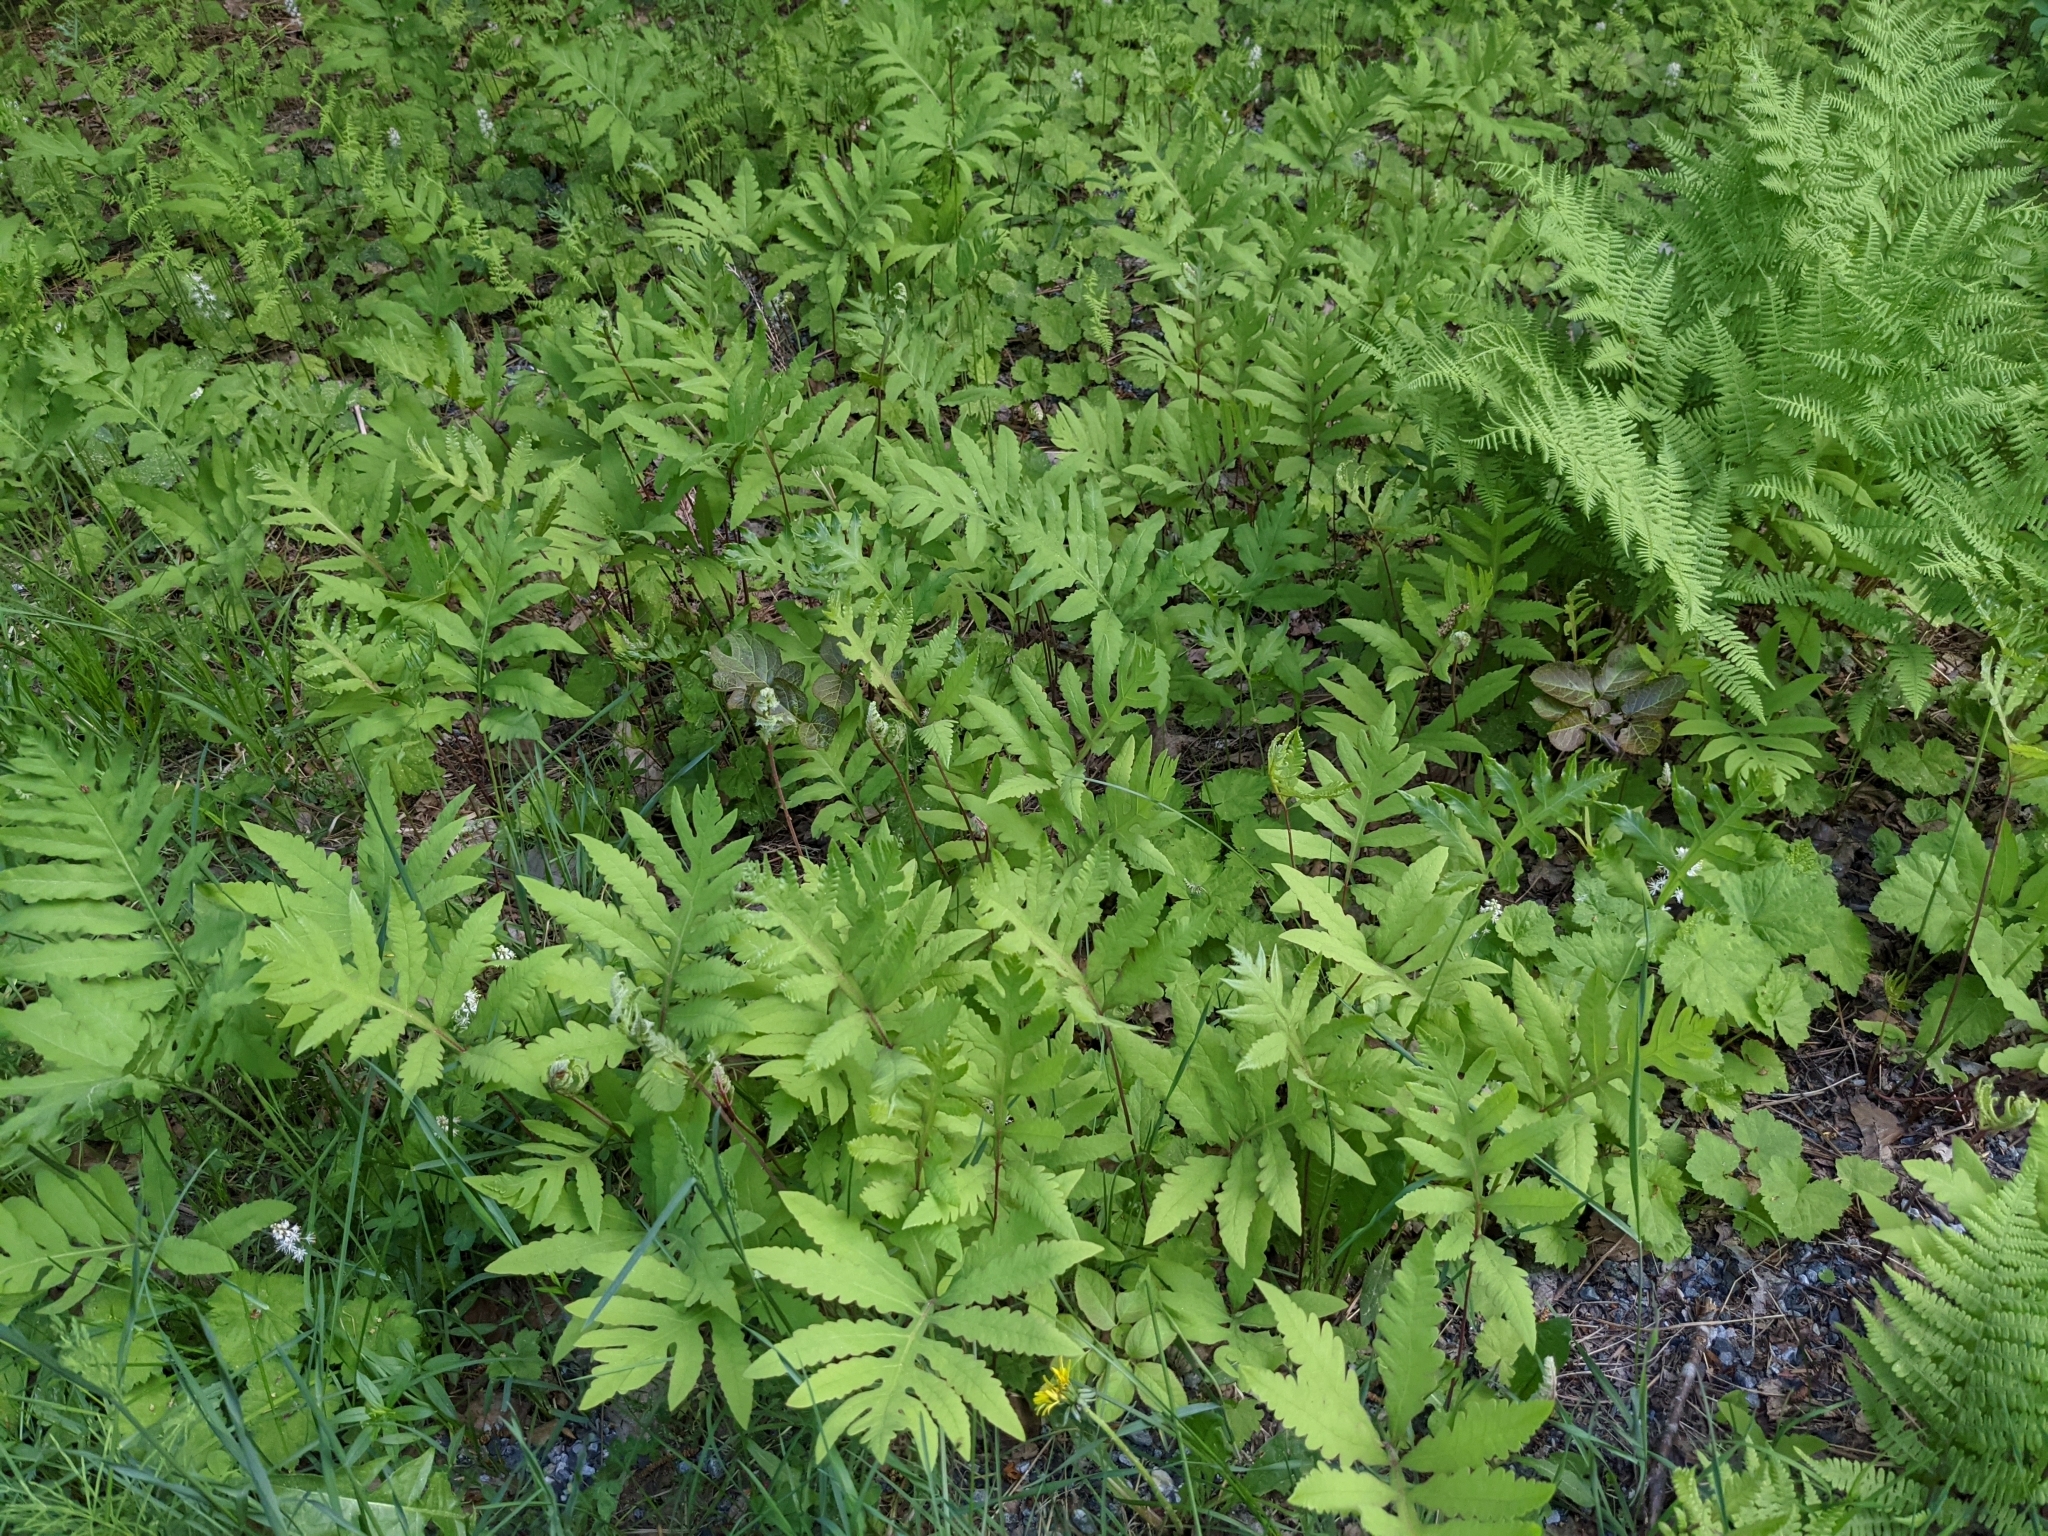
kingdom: Plantae
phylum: Tracheophyta
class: Polypodiopsida
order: Polypodiales
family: Onocleaceae
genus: Onoclea
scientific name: Onoclea sensibilis
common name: Sensitive fern
